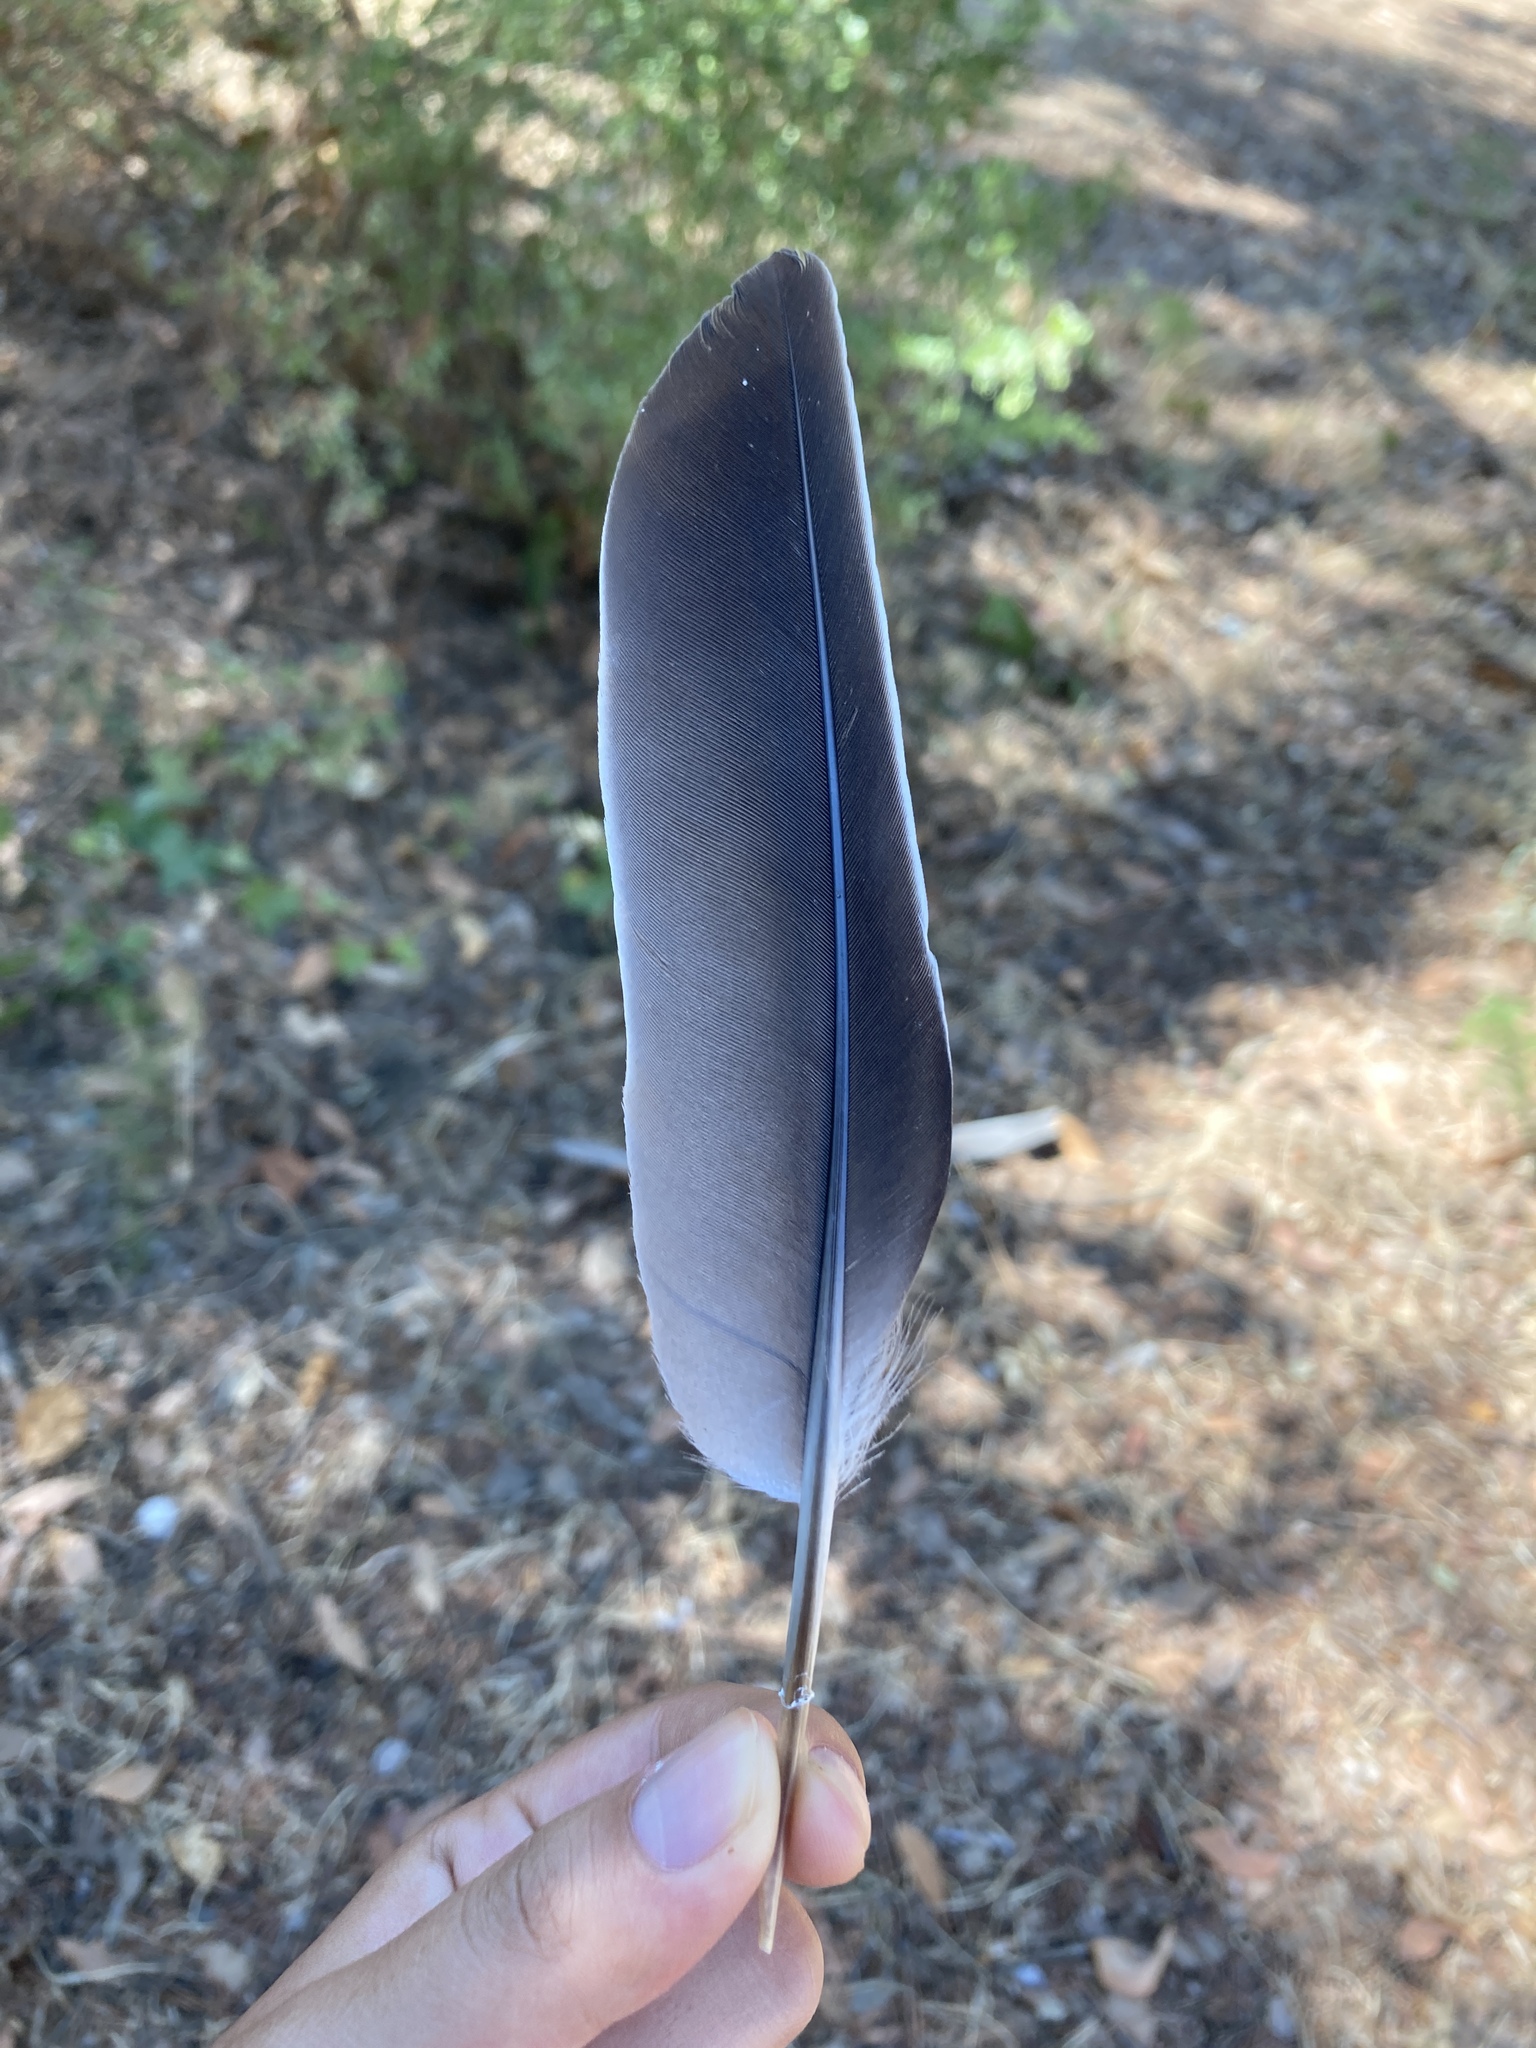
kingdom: Animalia
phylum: Chordata
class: Aves
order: Columbiformes
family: Columbidae
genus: Columba
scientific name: Columba palumbus
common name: Common wood pigeon
